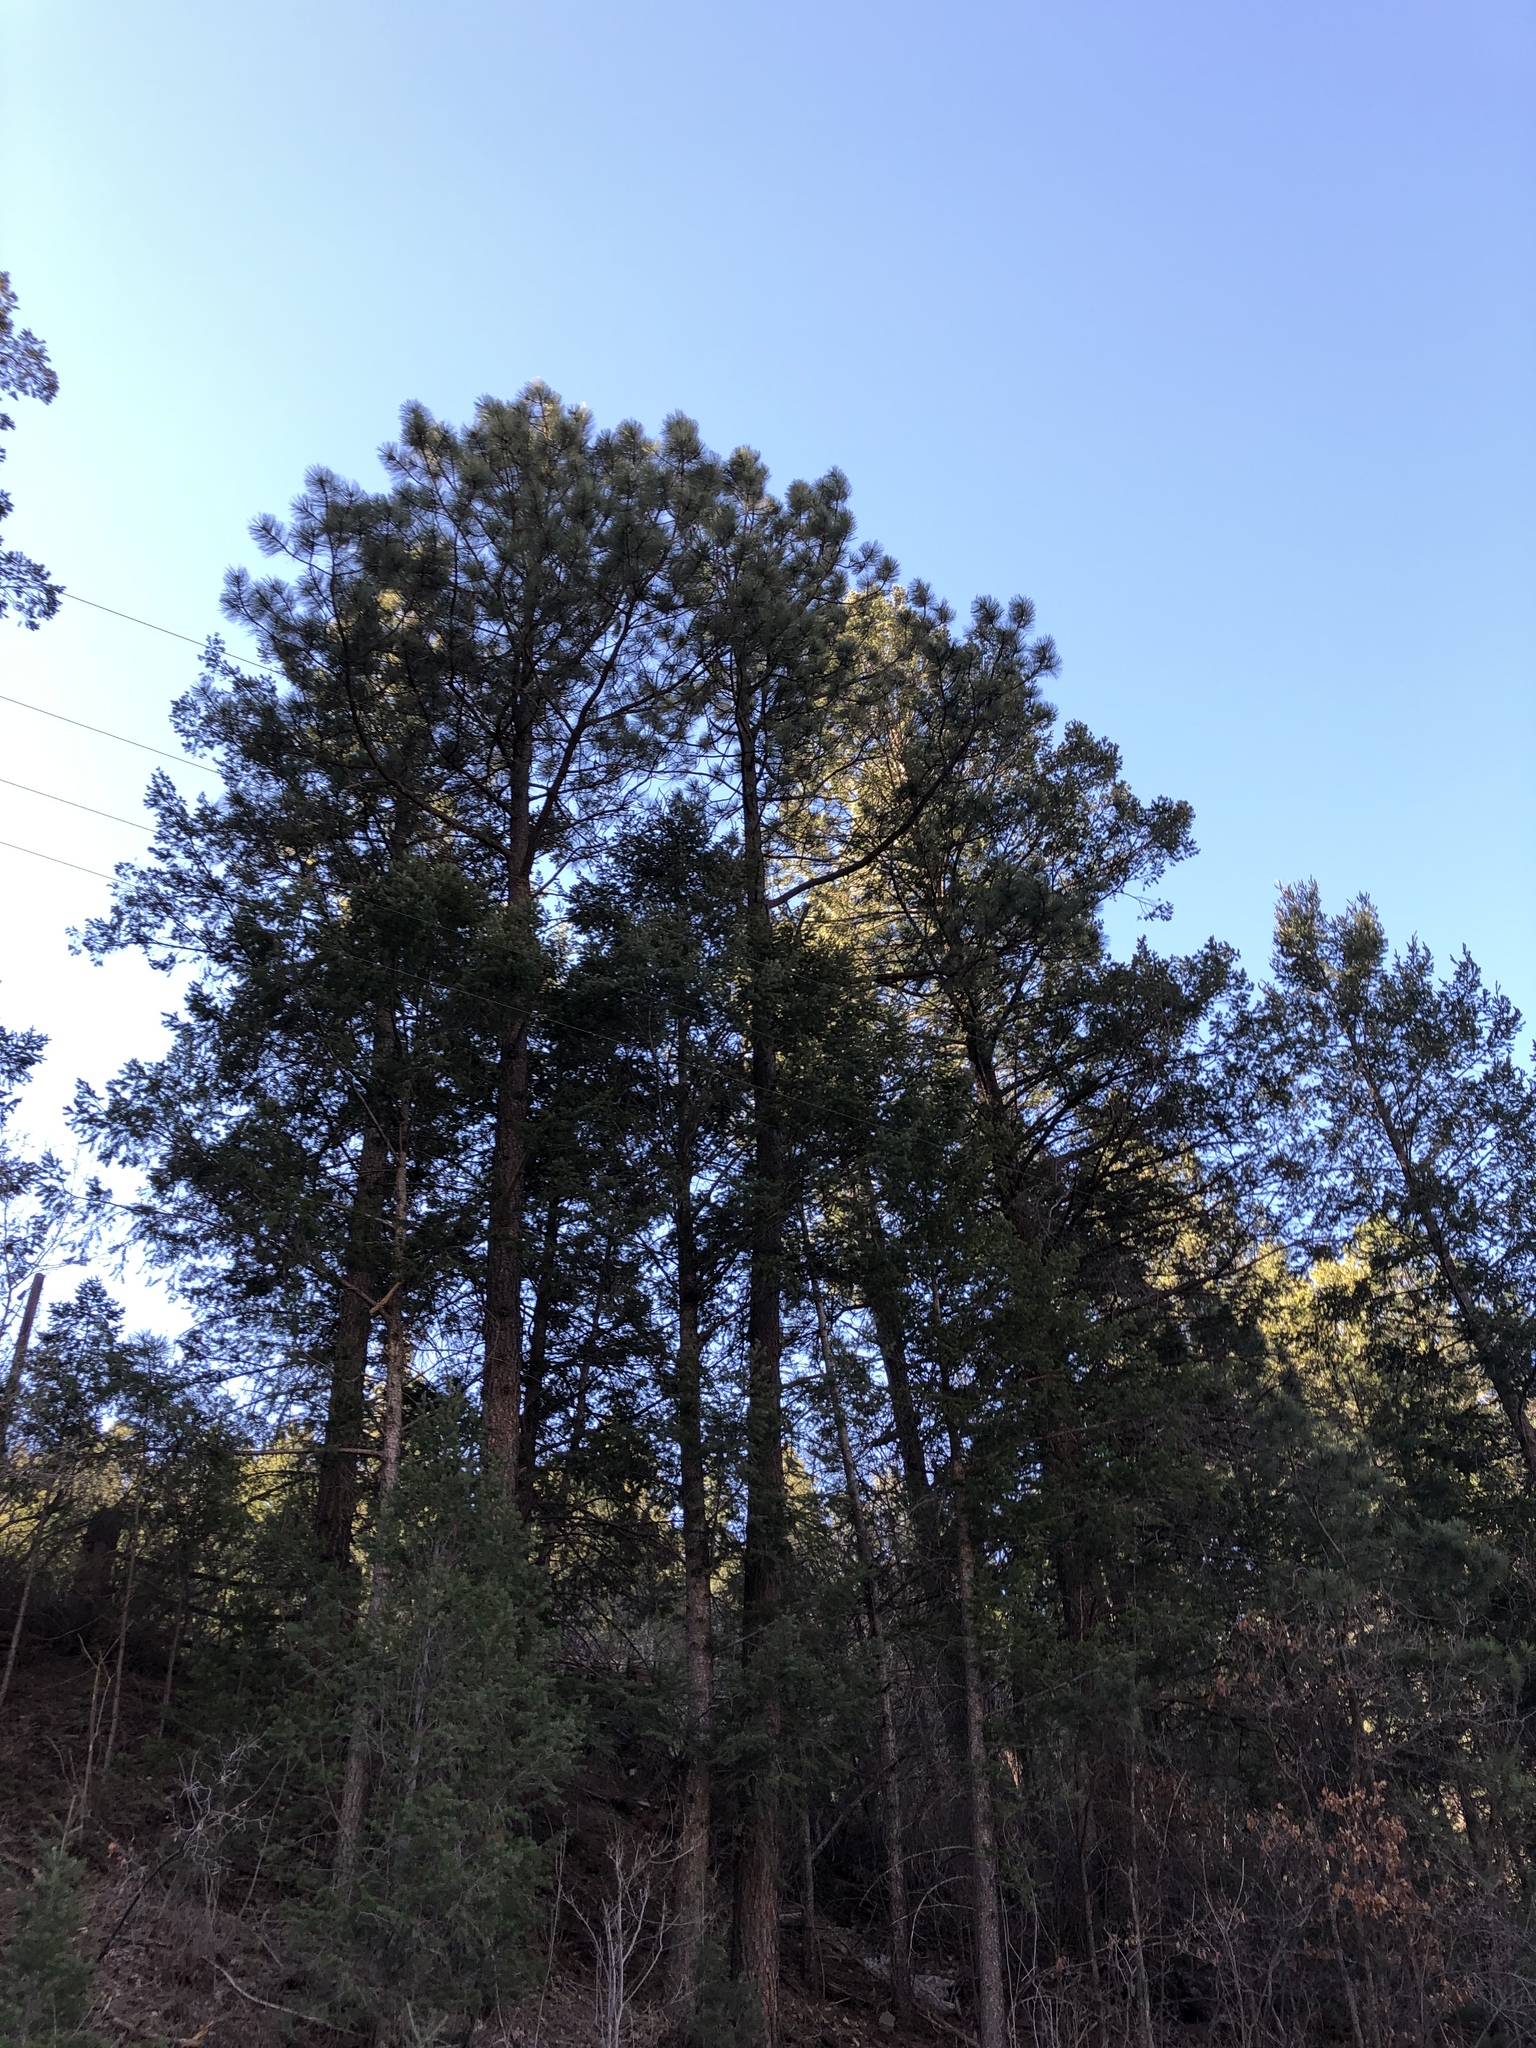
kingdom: Plantae
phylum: Tracheophyta
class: Pinopsida
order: Pinales
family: Pinaceae
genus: Pinus
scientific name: Pinus ponderosa
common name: Western yellow-pine
